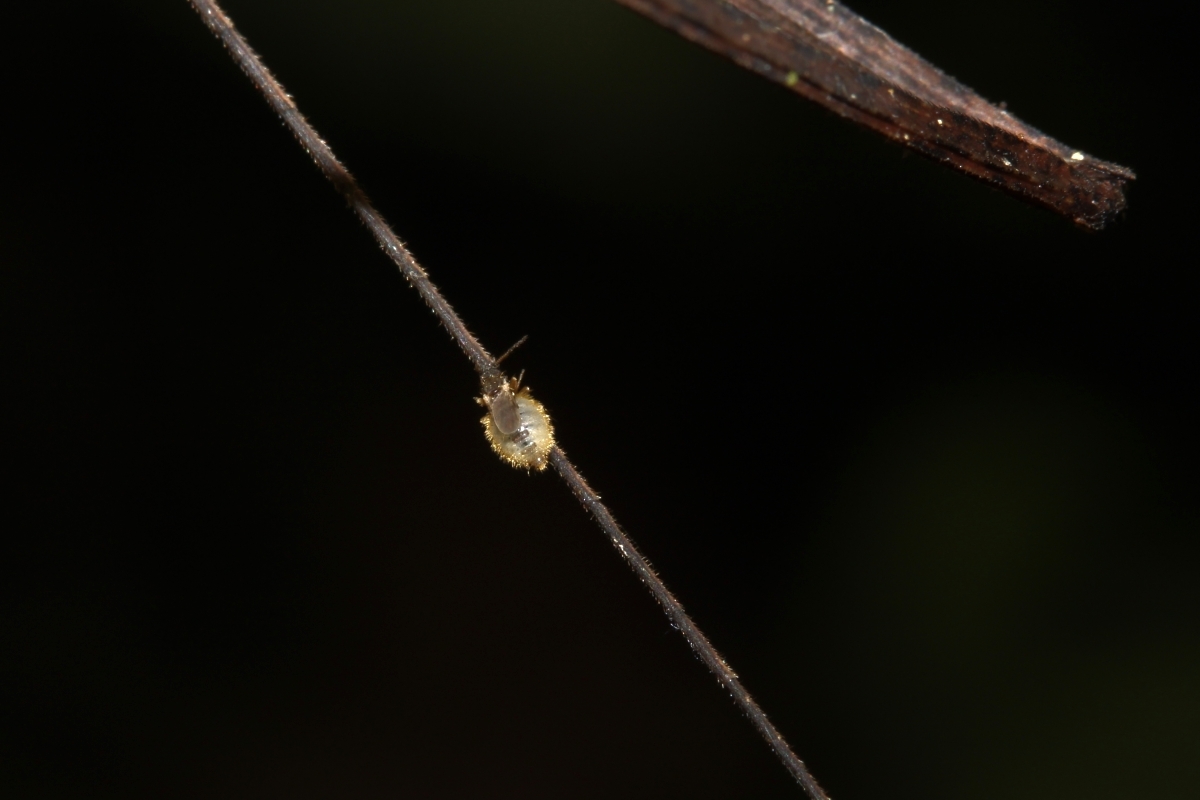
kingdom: Animalia
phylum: Arthropoda
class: Insecta
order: Phasmida
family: Diapheromeridae
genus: Dyme
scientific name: Dyme
